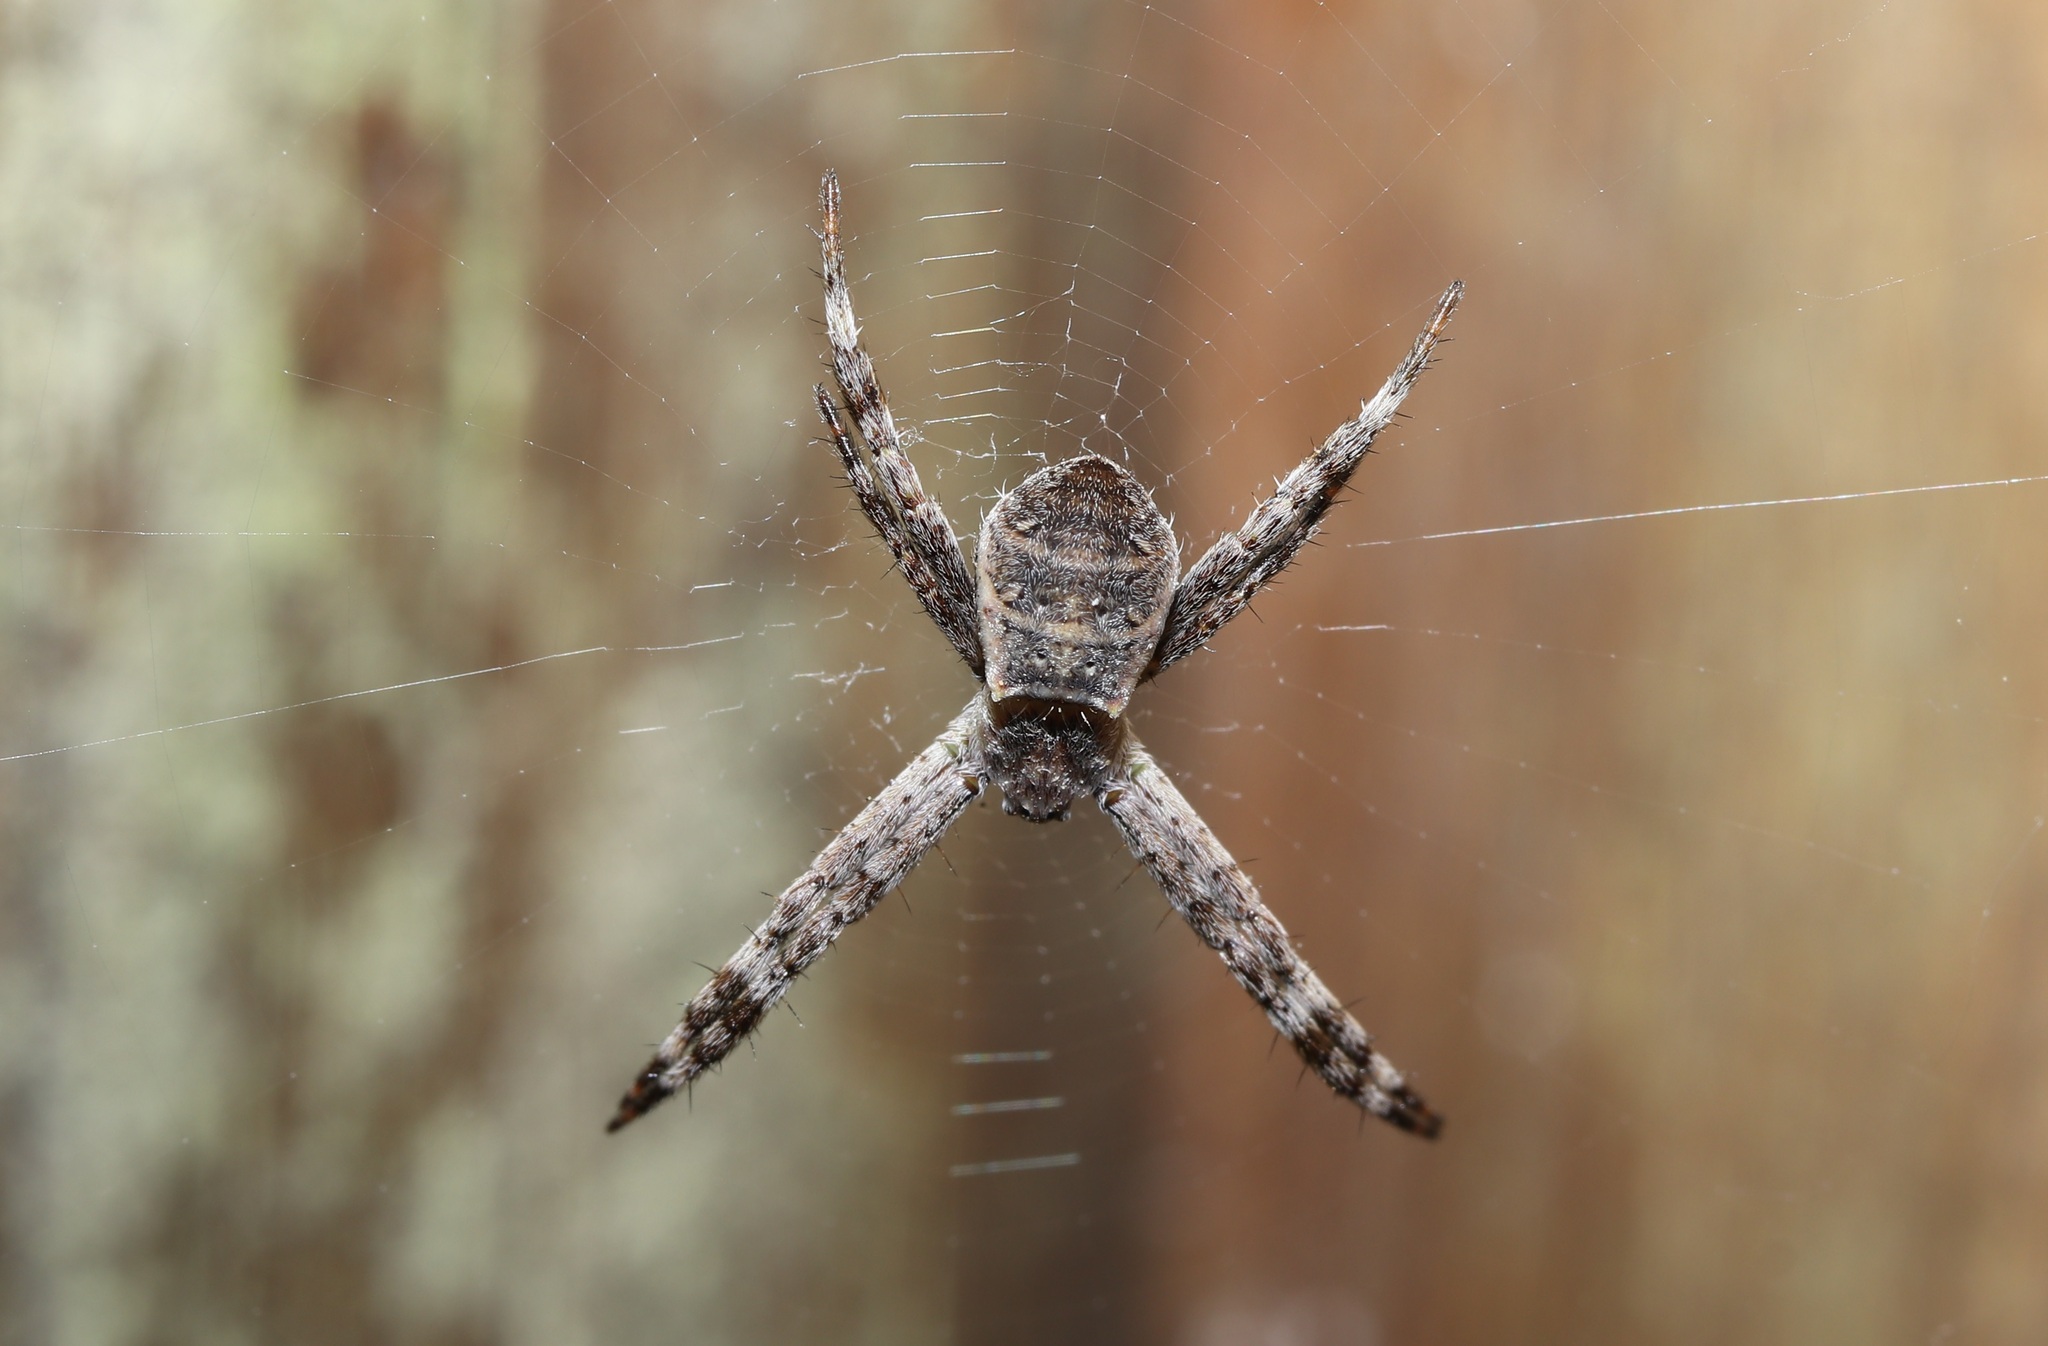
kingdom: Animalia
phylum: Arthropoda
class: Arachnida
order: Araneae
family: Araneidae
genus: Argiope
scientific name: Argiope amoena
